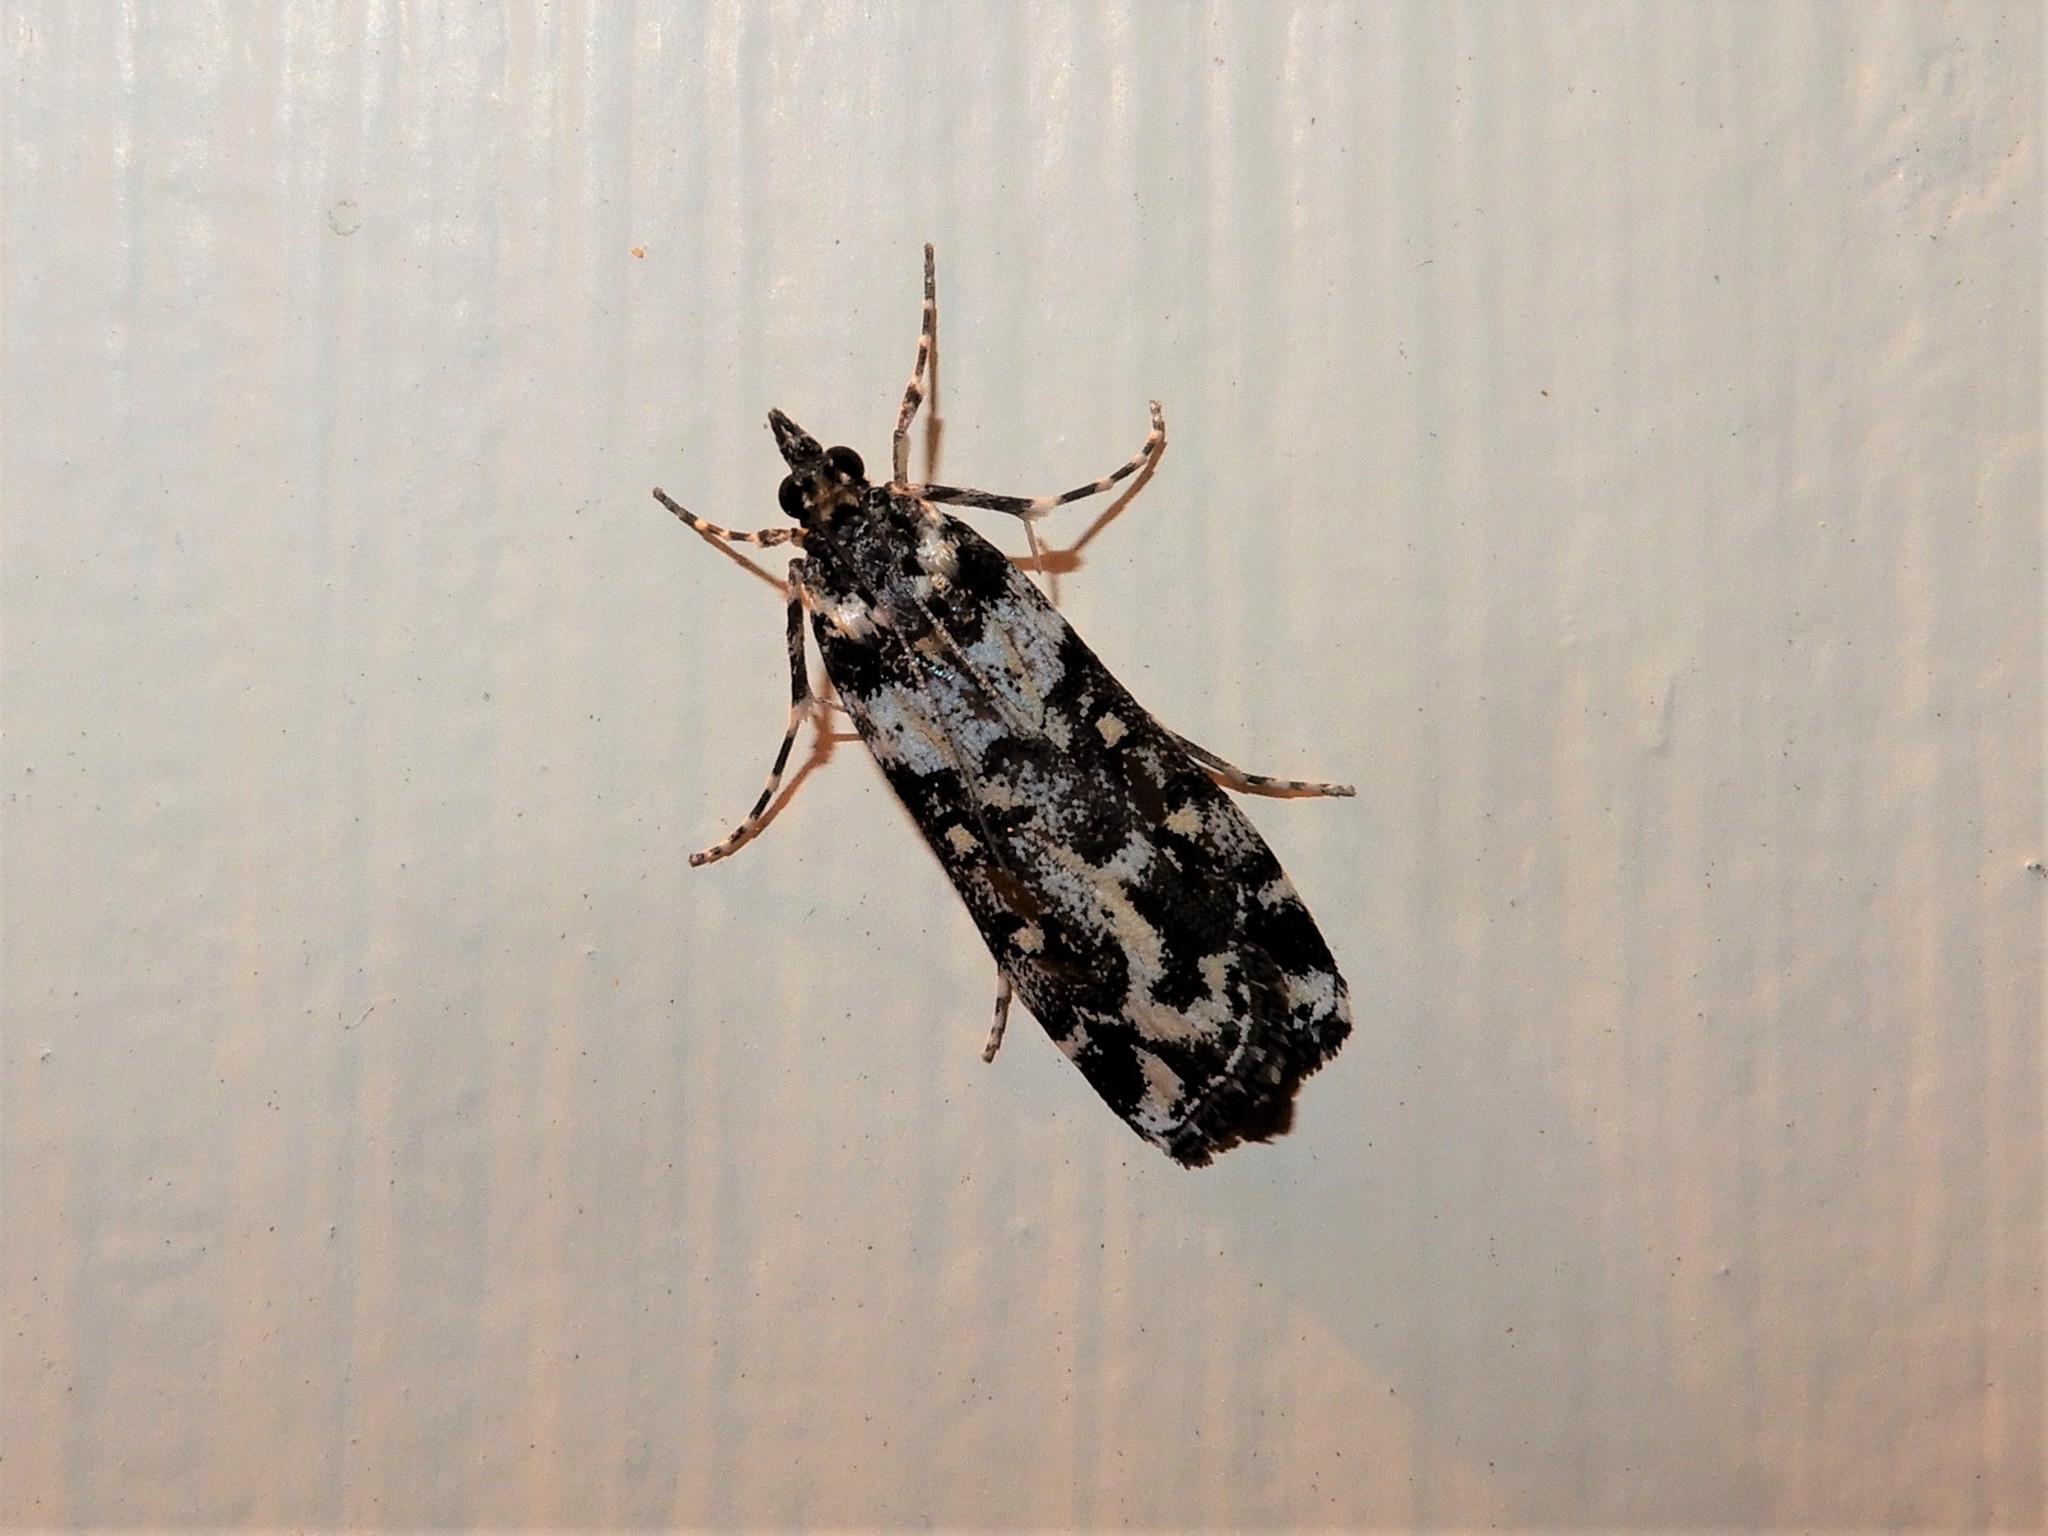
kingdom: Animalia
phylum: Arthropoda
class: Insecta
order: Lepidoptera
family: Crambidae
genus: Eudonia
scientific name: Eudonia diphtheralis
